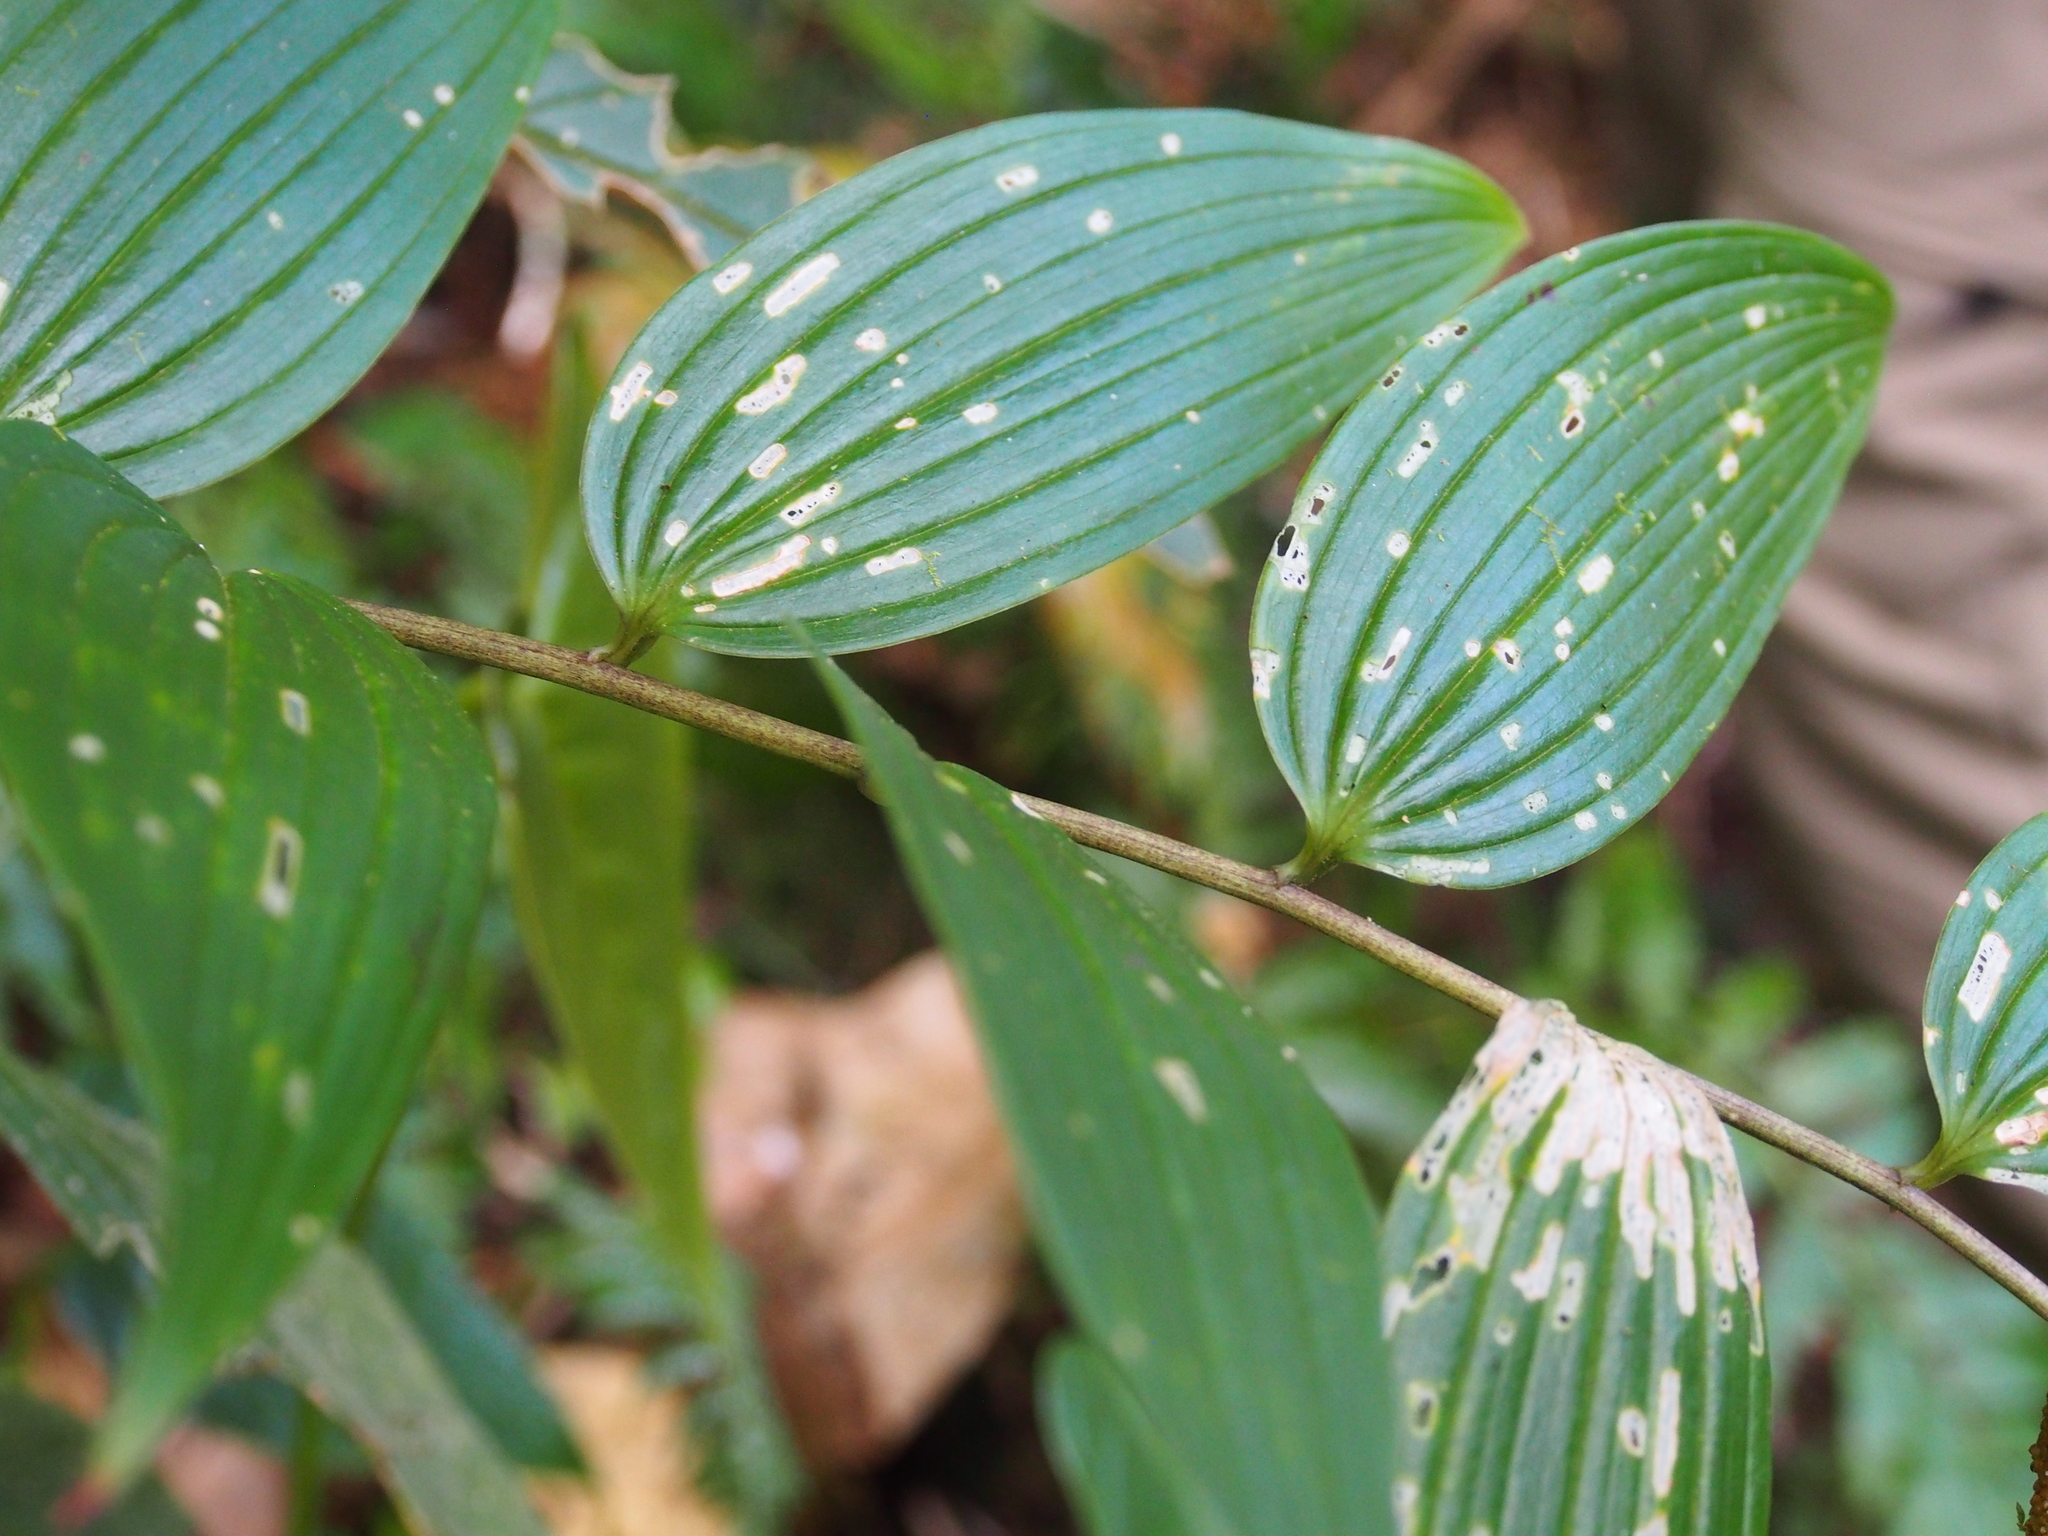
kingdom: Plantae
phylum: Tracheophyta
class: Liliopsida
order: Asparagales
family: Asparagaceae
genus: Maianthemum
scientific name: Maianthemum gigas
